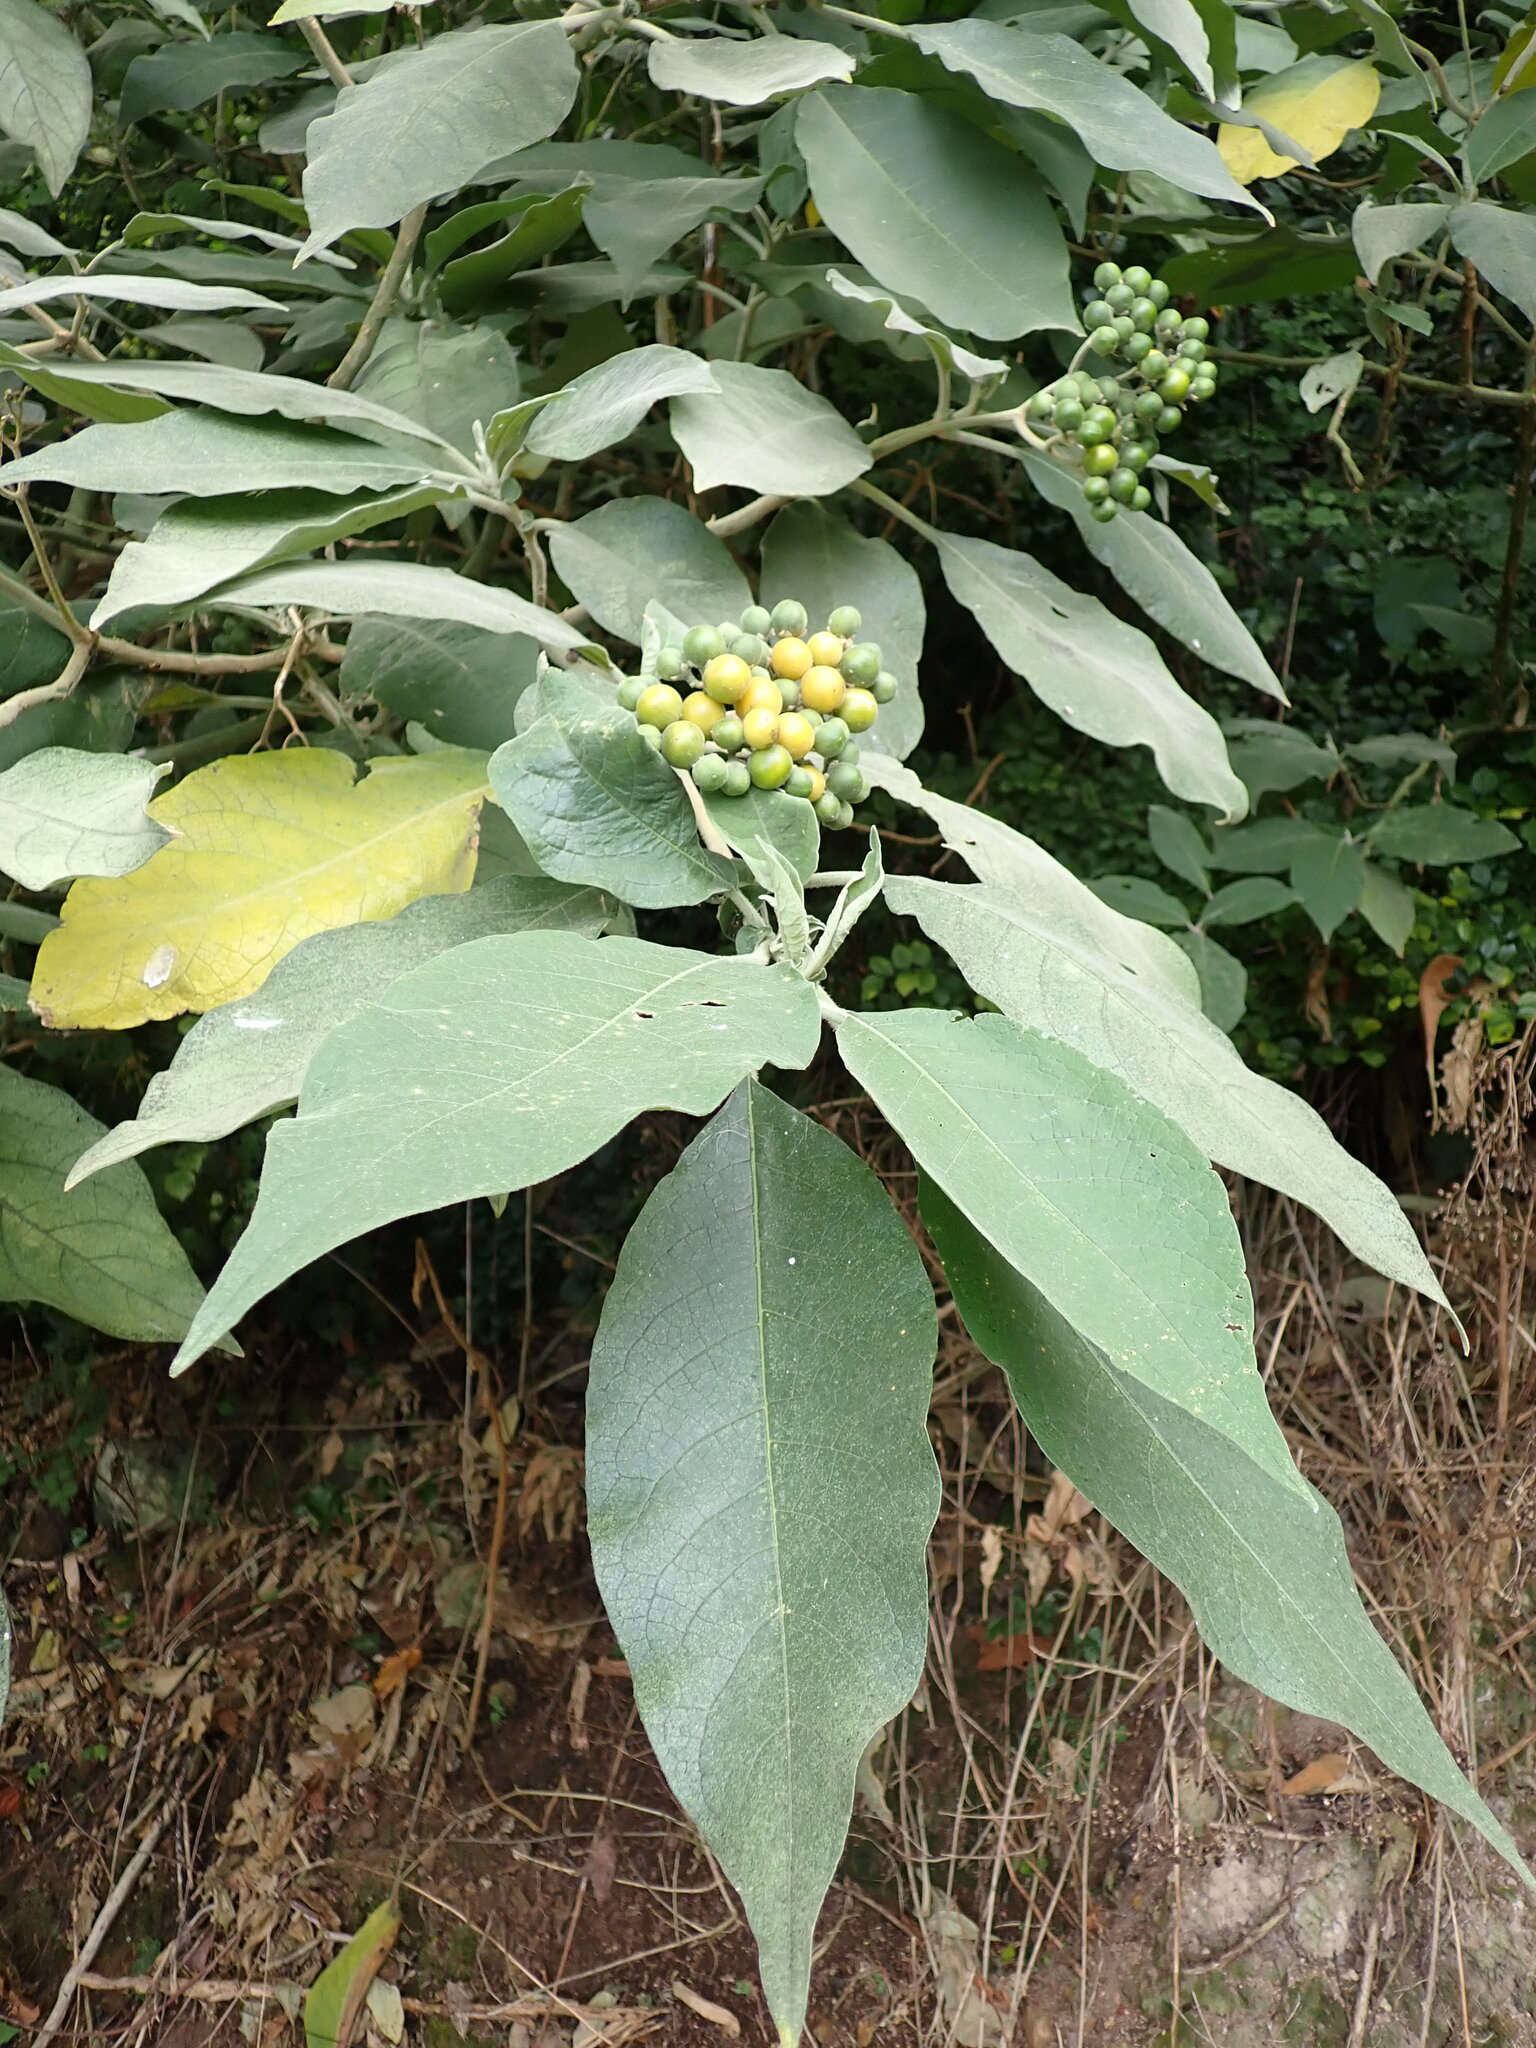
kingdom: Plantae
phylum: Tracheophyta
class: Magnoliopsida
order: Solanales
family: Solanaceae
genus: Solanum
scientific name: Solanum mauritianum
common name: Earleaf nightshade
